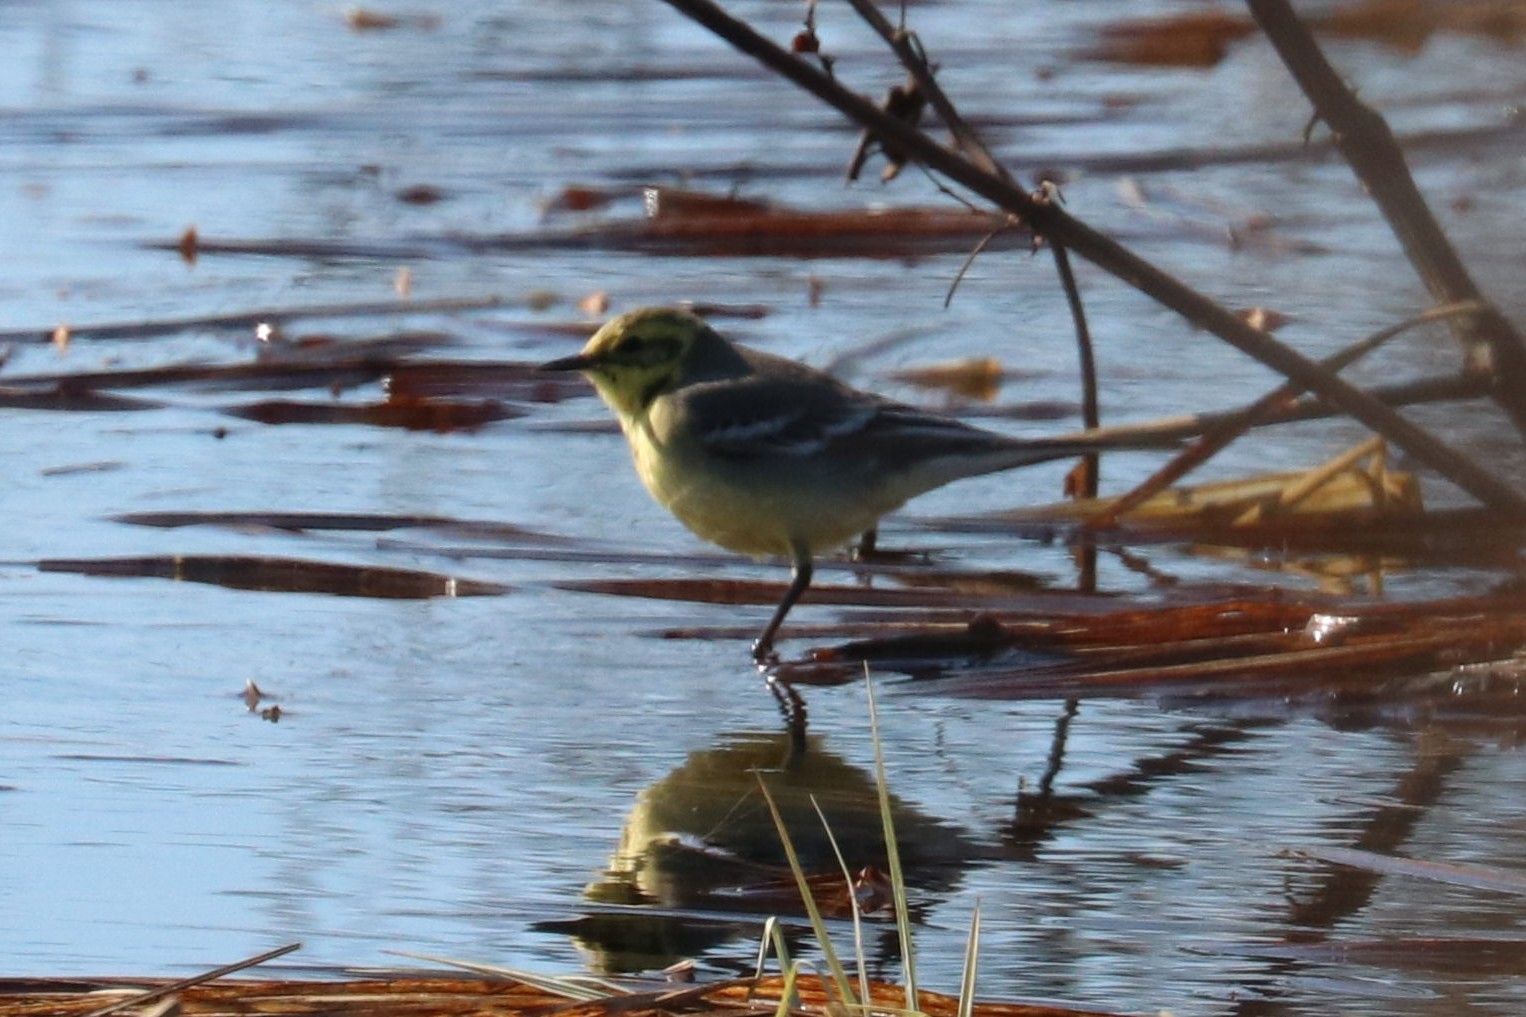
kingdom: Animalia
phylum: Chordata
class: Aves
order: Passeriformes
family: Motacillidae
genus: Motacilla
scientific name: Motacilla citreola
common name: Citrine wagtail
